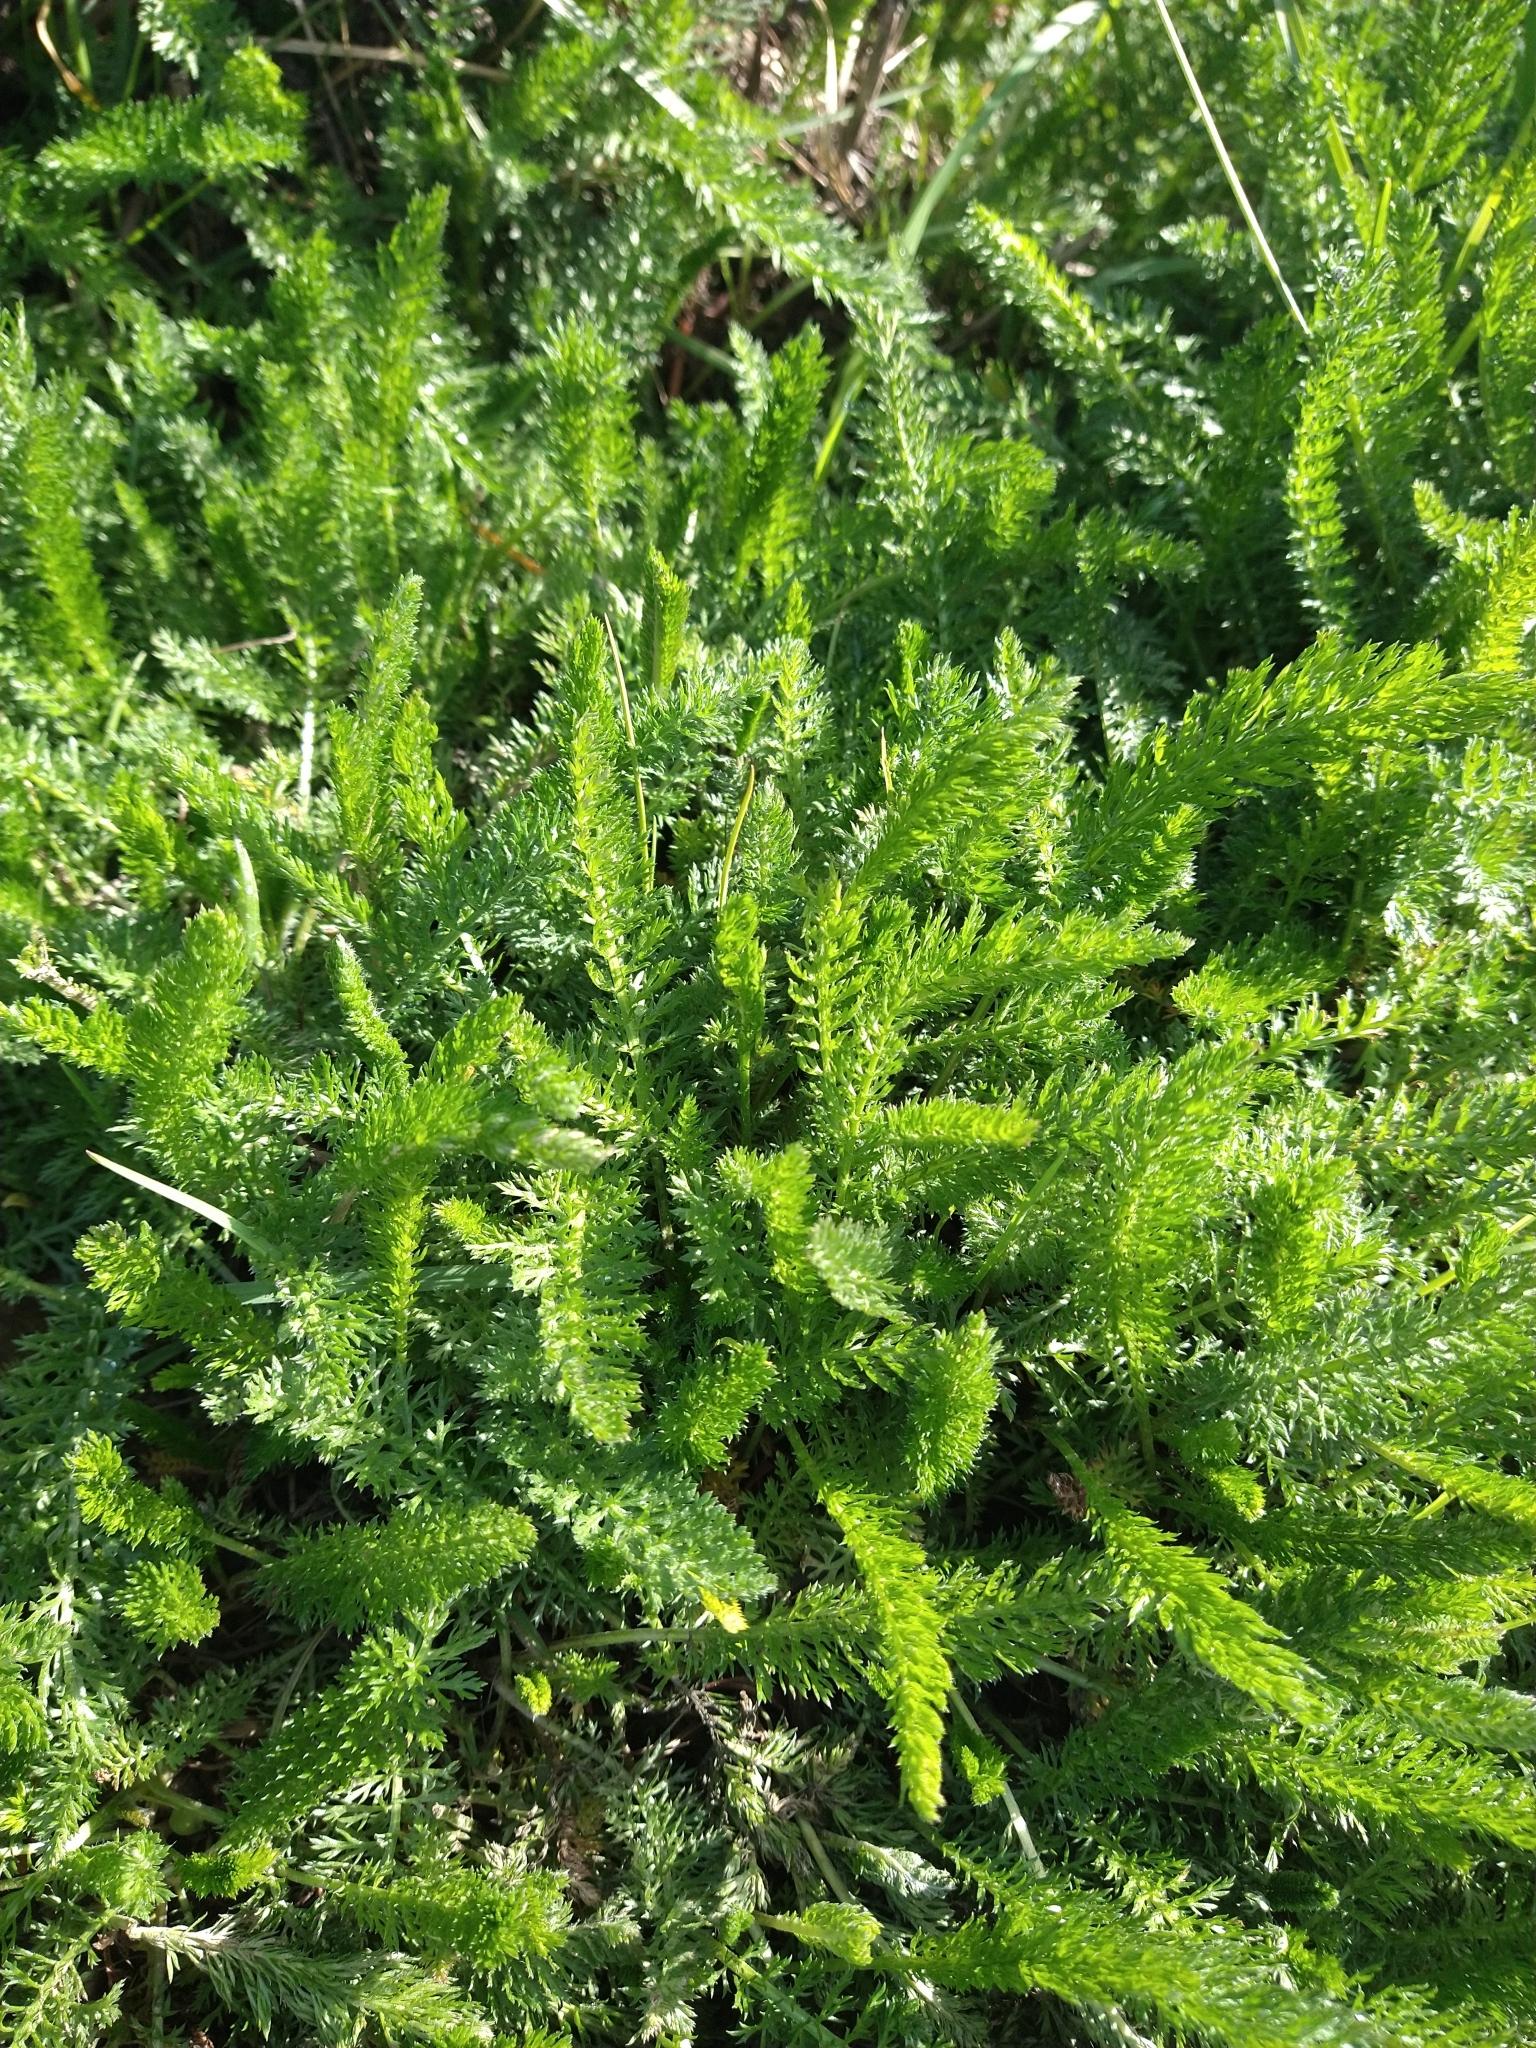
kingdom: Plantae
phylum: Tracheophyta
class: Magnoliopsida
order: Asterales
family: Asteraceae
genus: Achillea
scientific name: Achillea millefolium
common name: Yarrow
